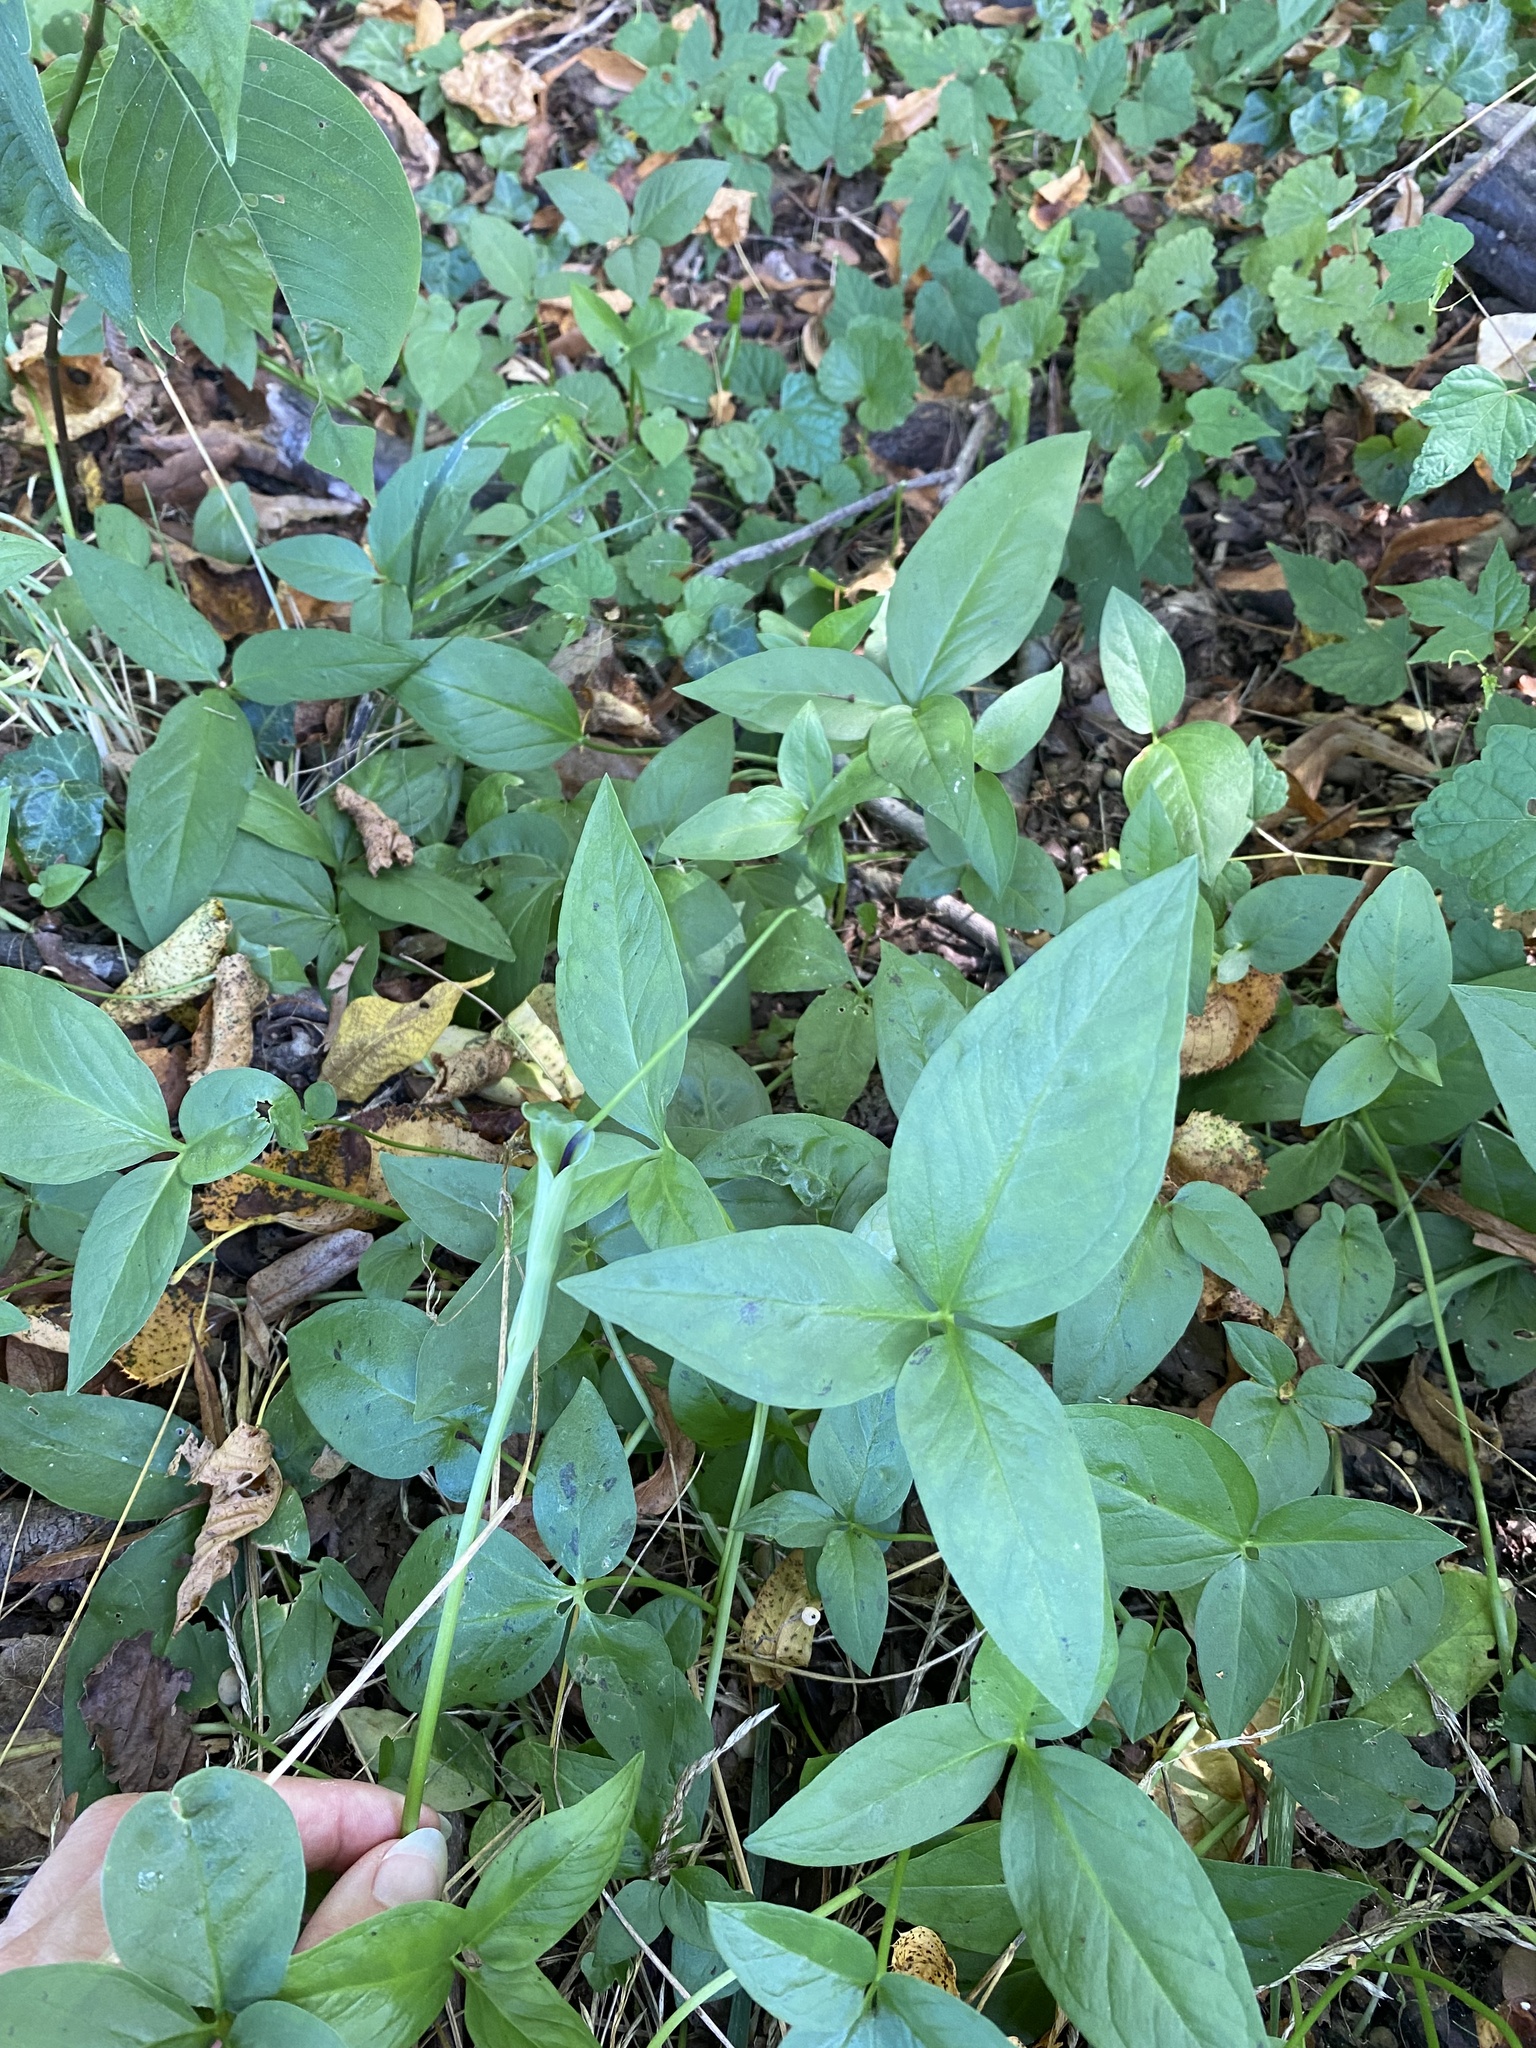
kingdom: Plantae
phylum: Tracheophyta
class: Liliopsida
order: Alismatales
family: Araceae
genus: Pinellia
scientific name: Pinellia ternata
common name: Pinellia
